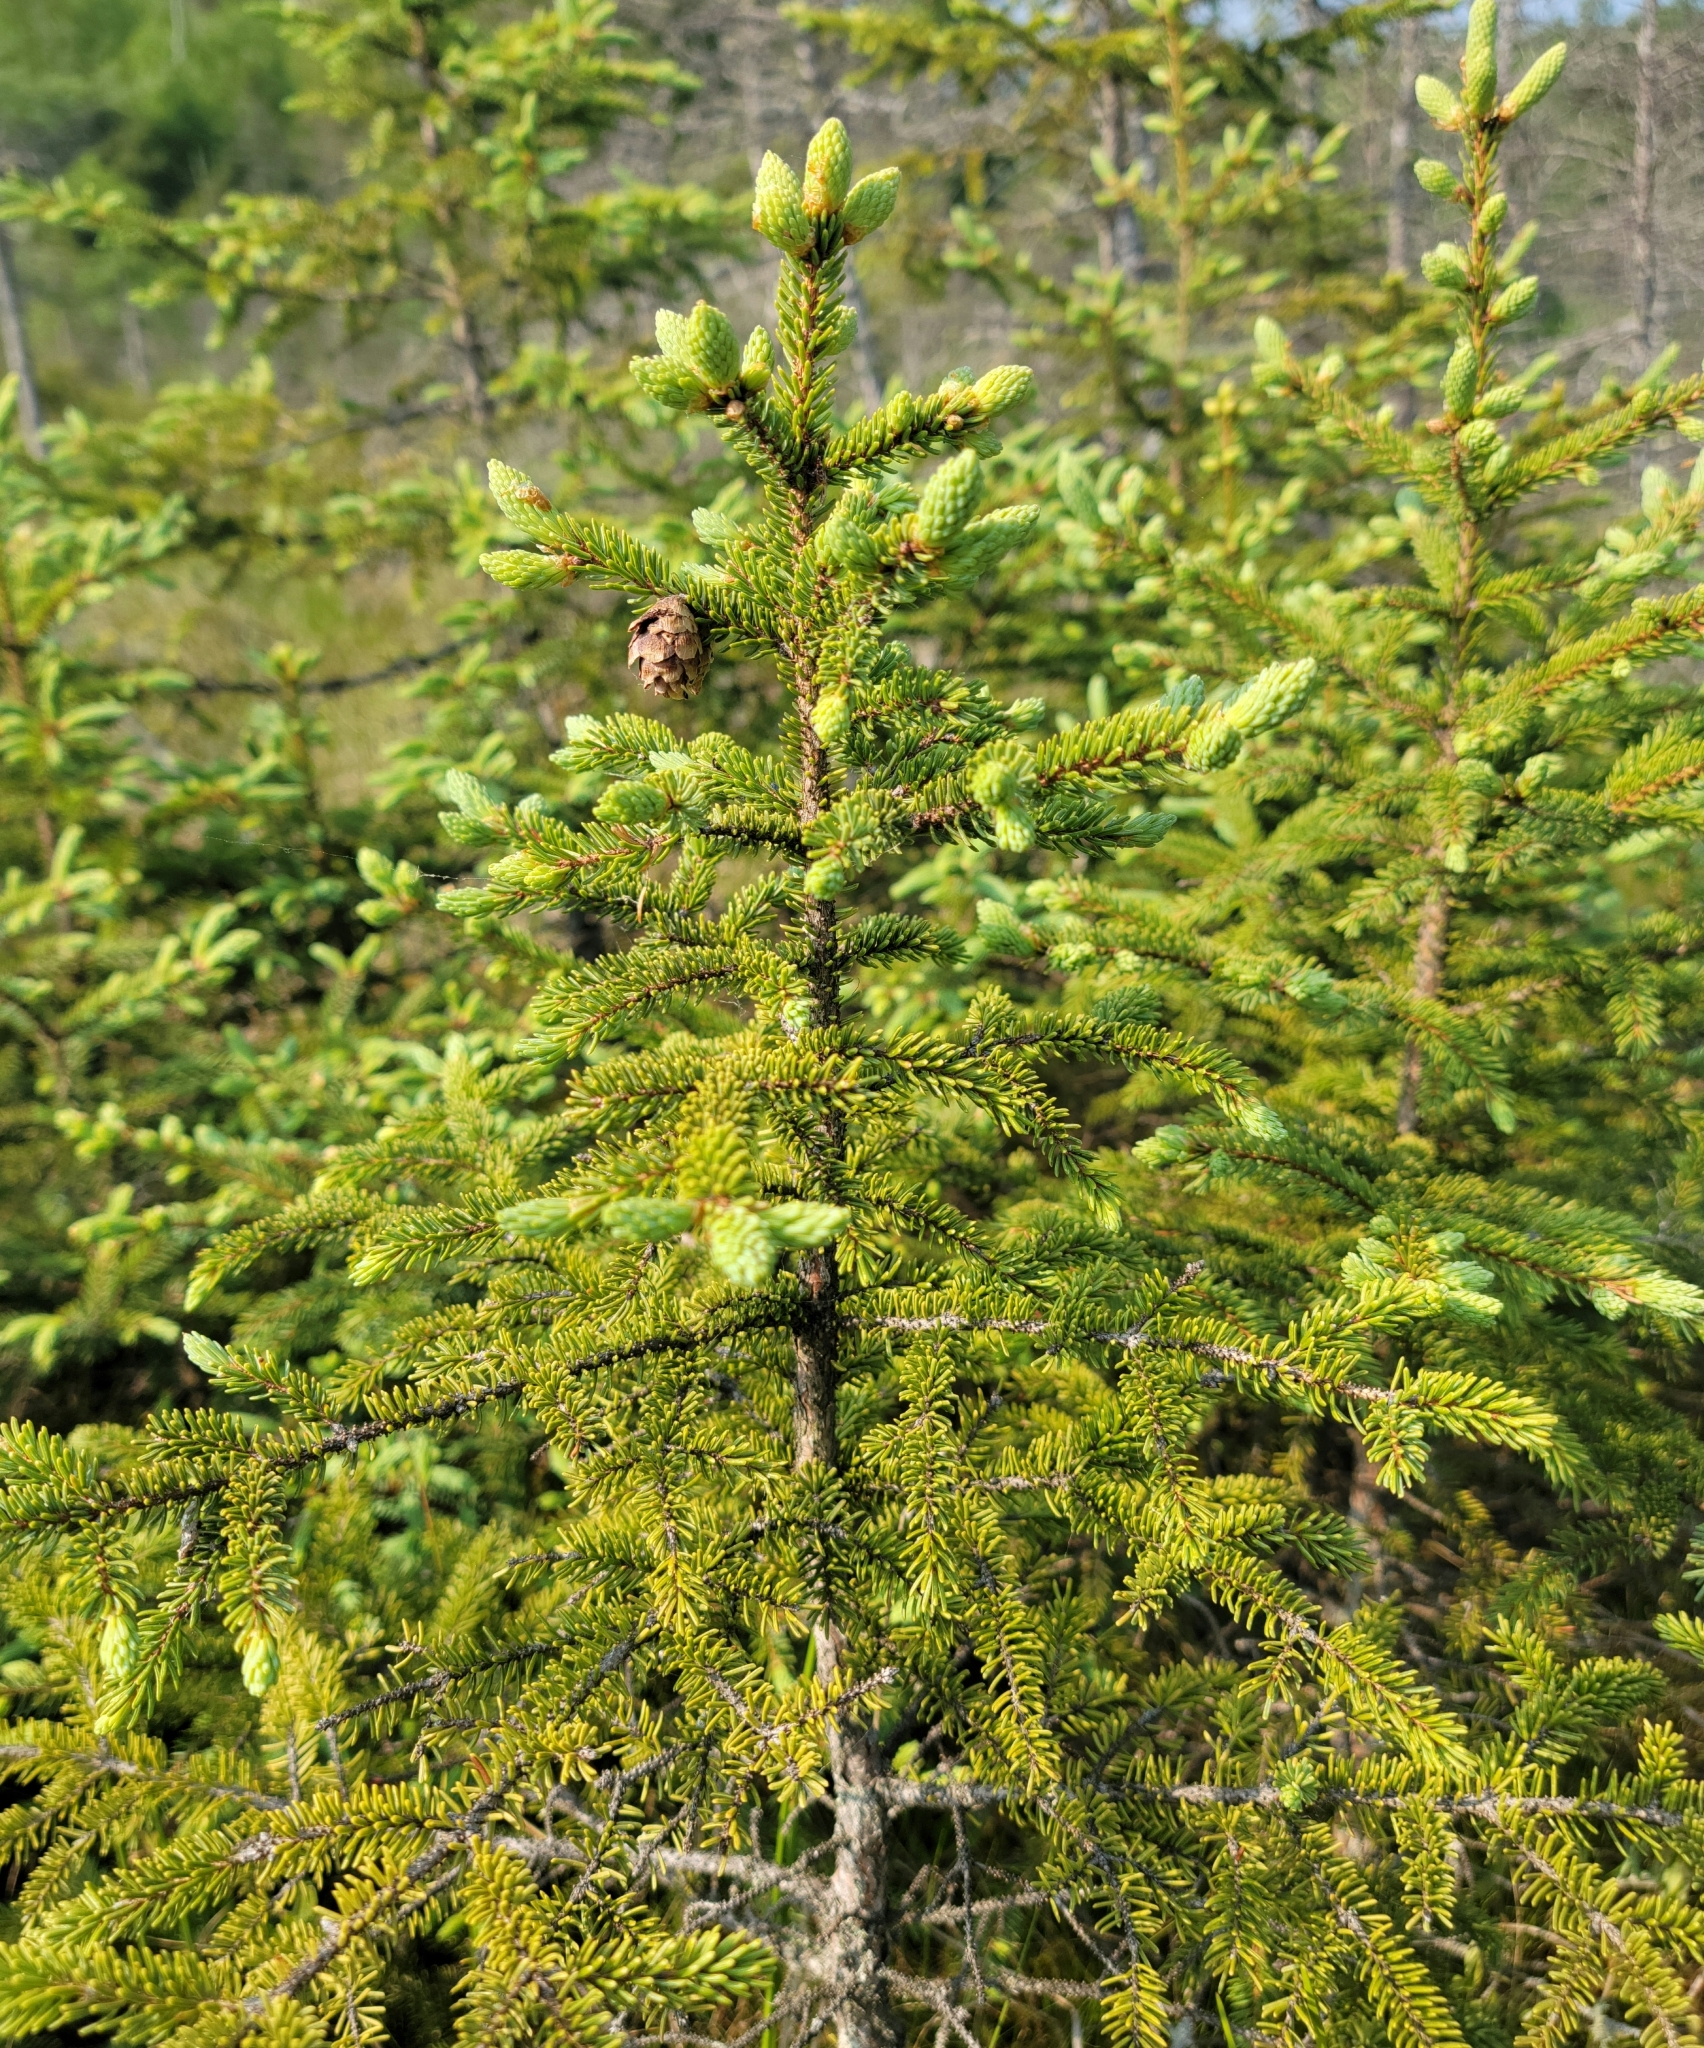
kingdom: Plantae
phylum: Tracheophyta
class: Pinopsida
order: Pinales
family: Pinaceae
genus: Picea
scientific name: Picea mariana
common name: Black spruce
